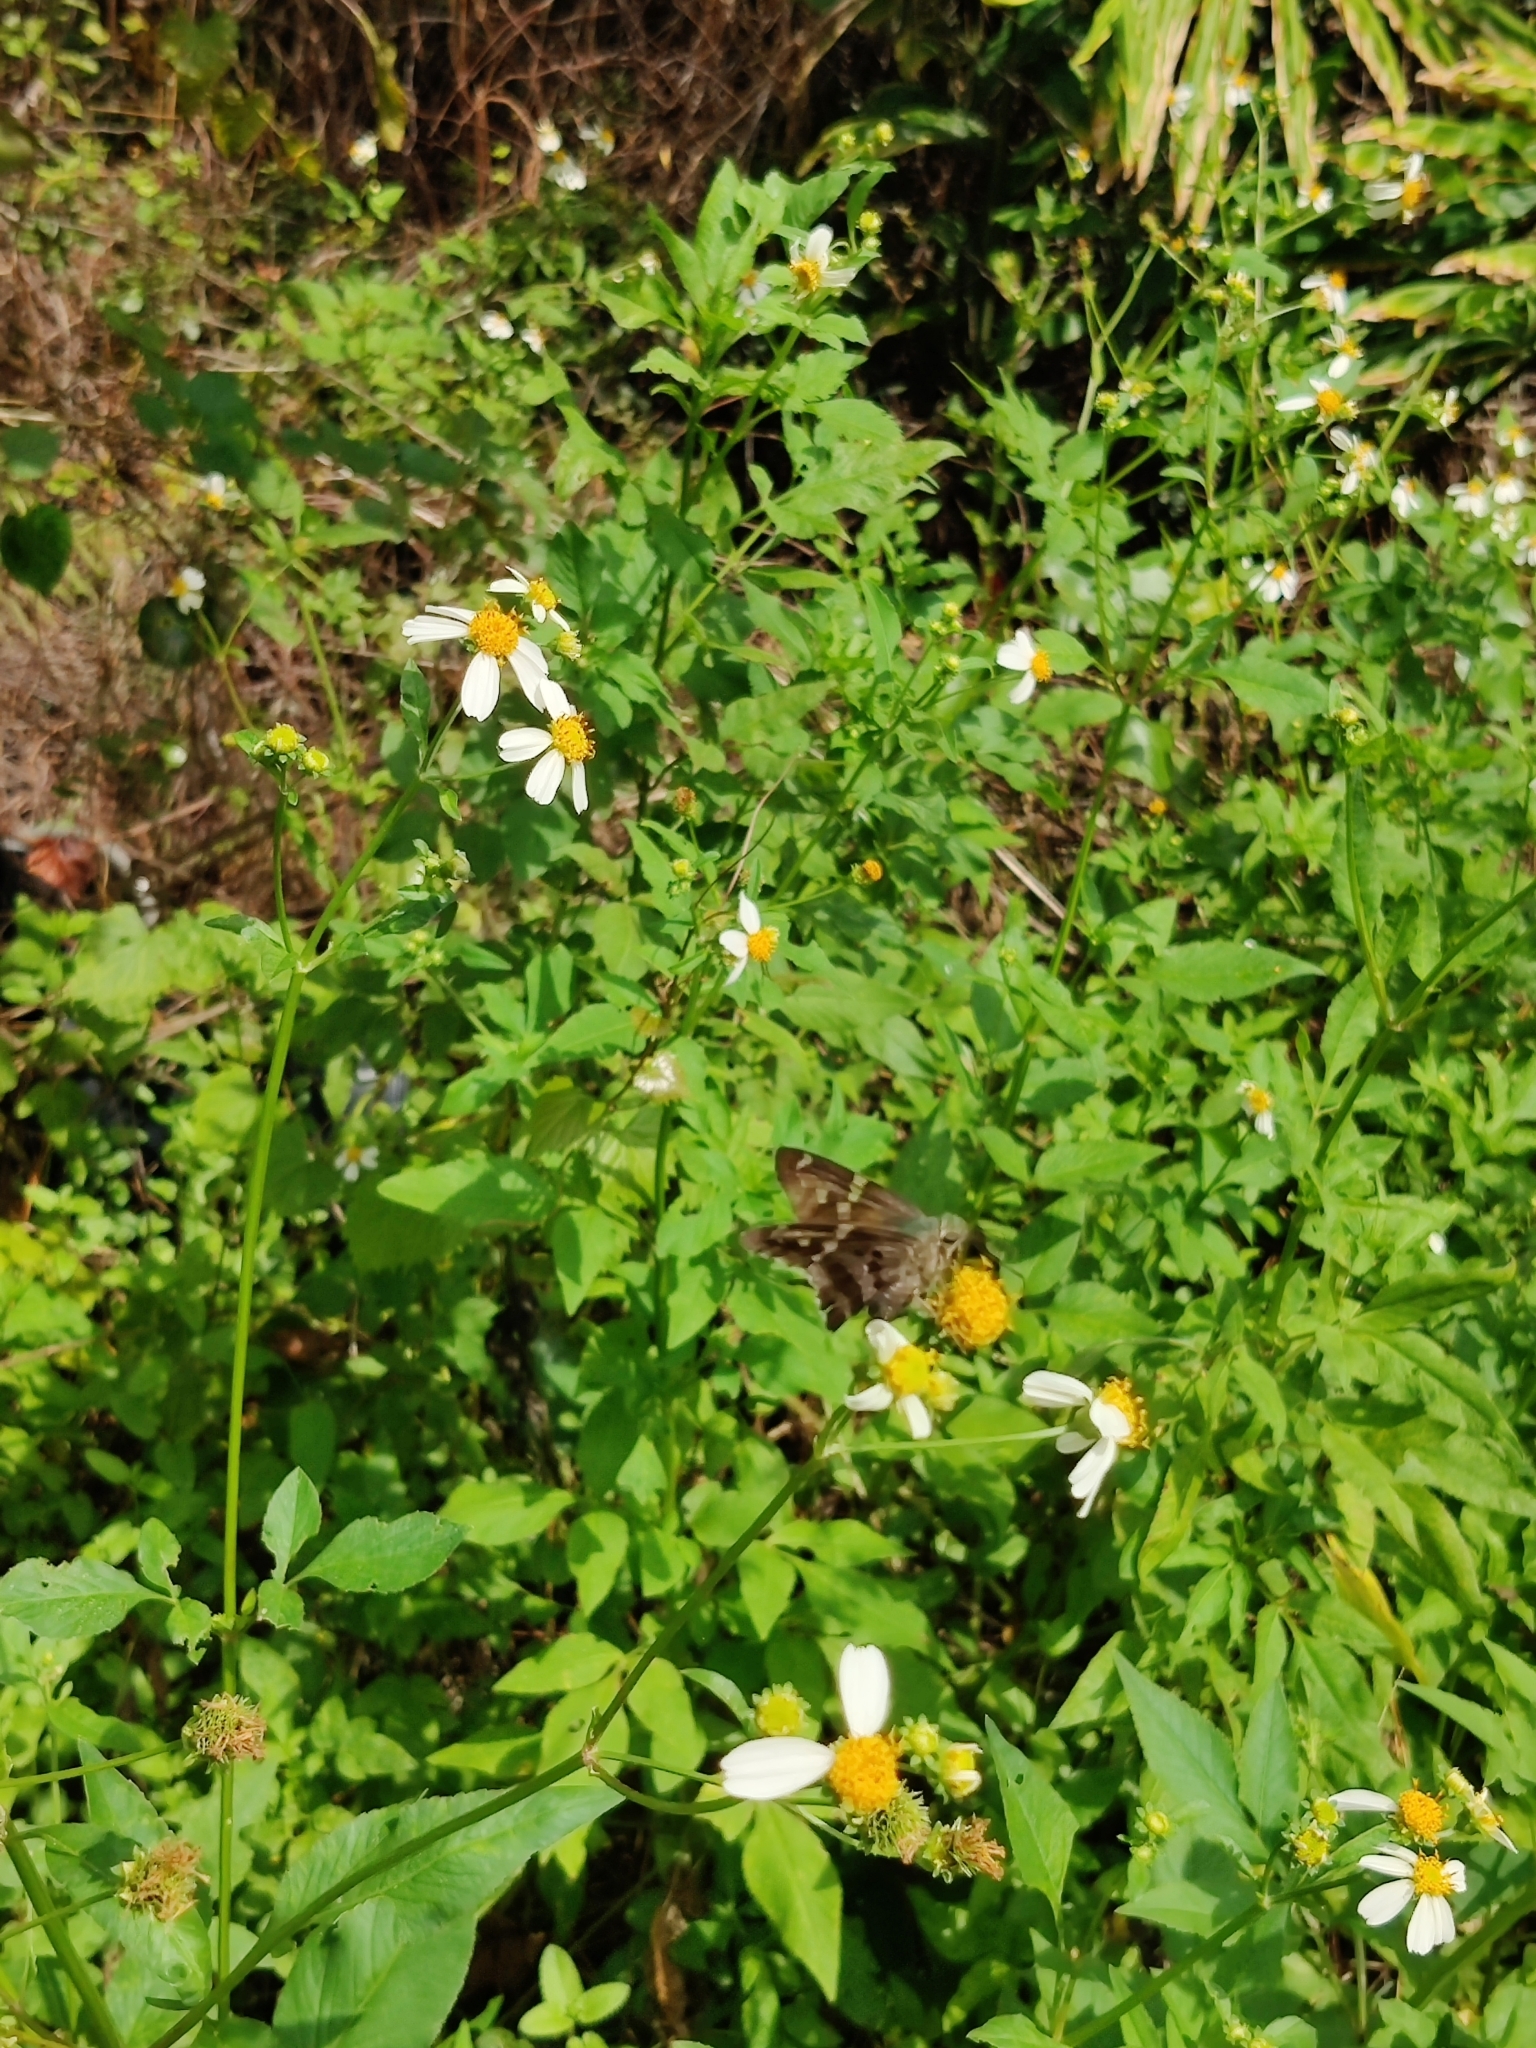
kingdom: Animalia
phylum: Arthropoda
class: Insecta
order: Lepidoptera
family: Hesperiidae
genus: Urbanus
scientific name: Urbanus proteus
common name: Long-tailed skipper
